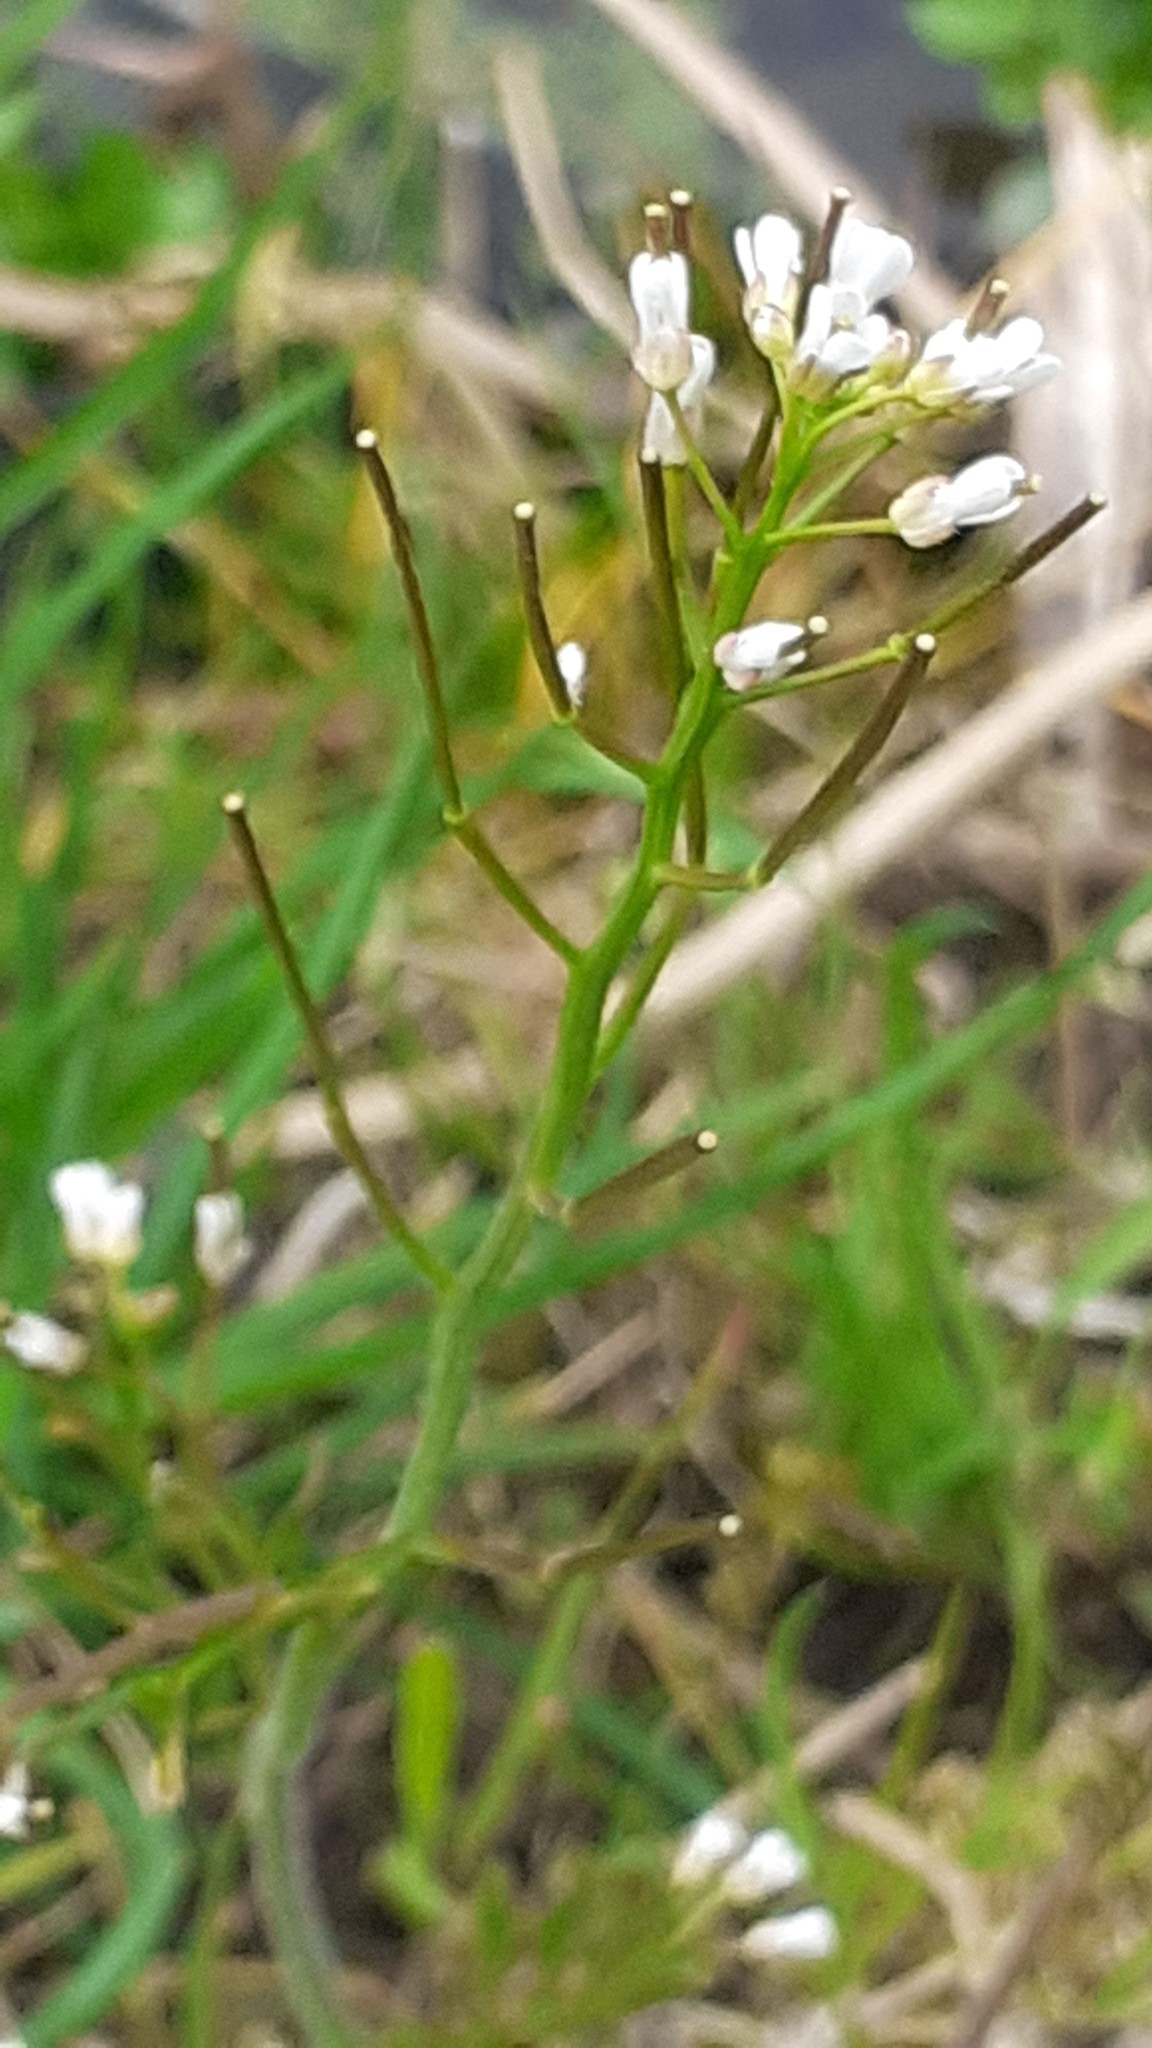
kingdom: Plantae
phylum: Tracheophyta
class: Magnoliopsida
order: Brassicales
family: Brassicaceae
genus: Cardamine
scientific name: Cardamine flexuosa
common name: Woodland bittercress
